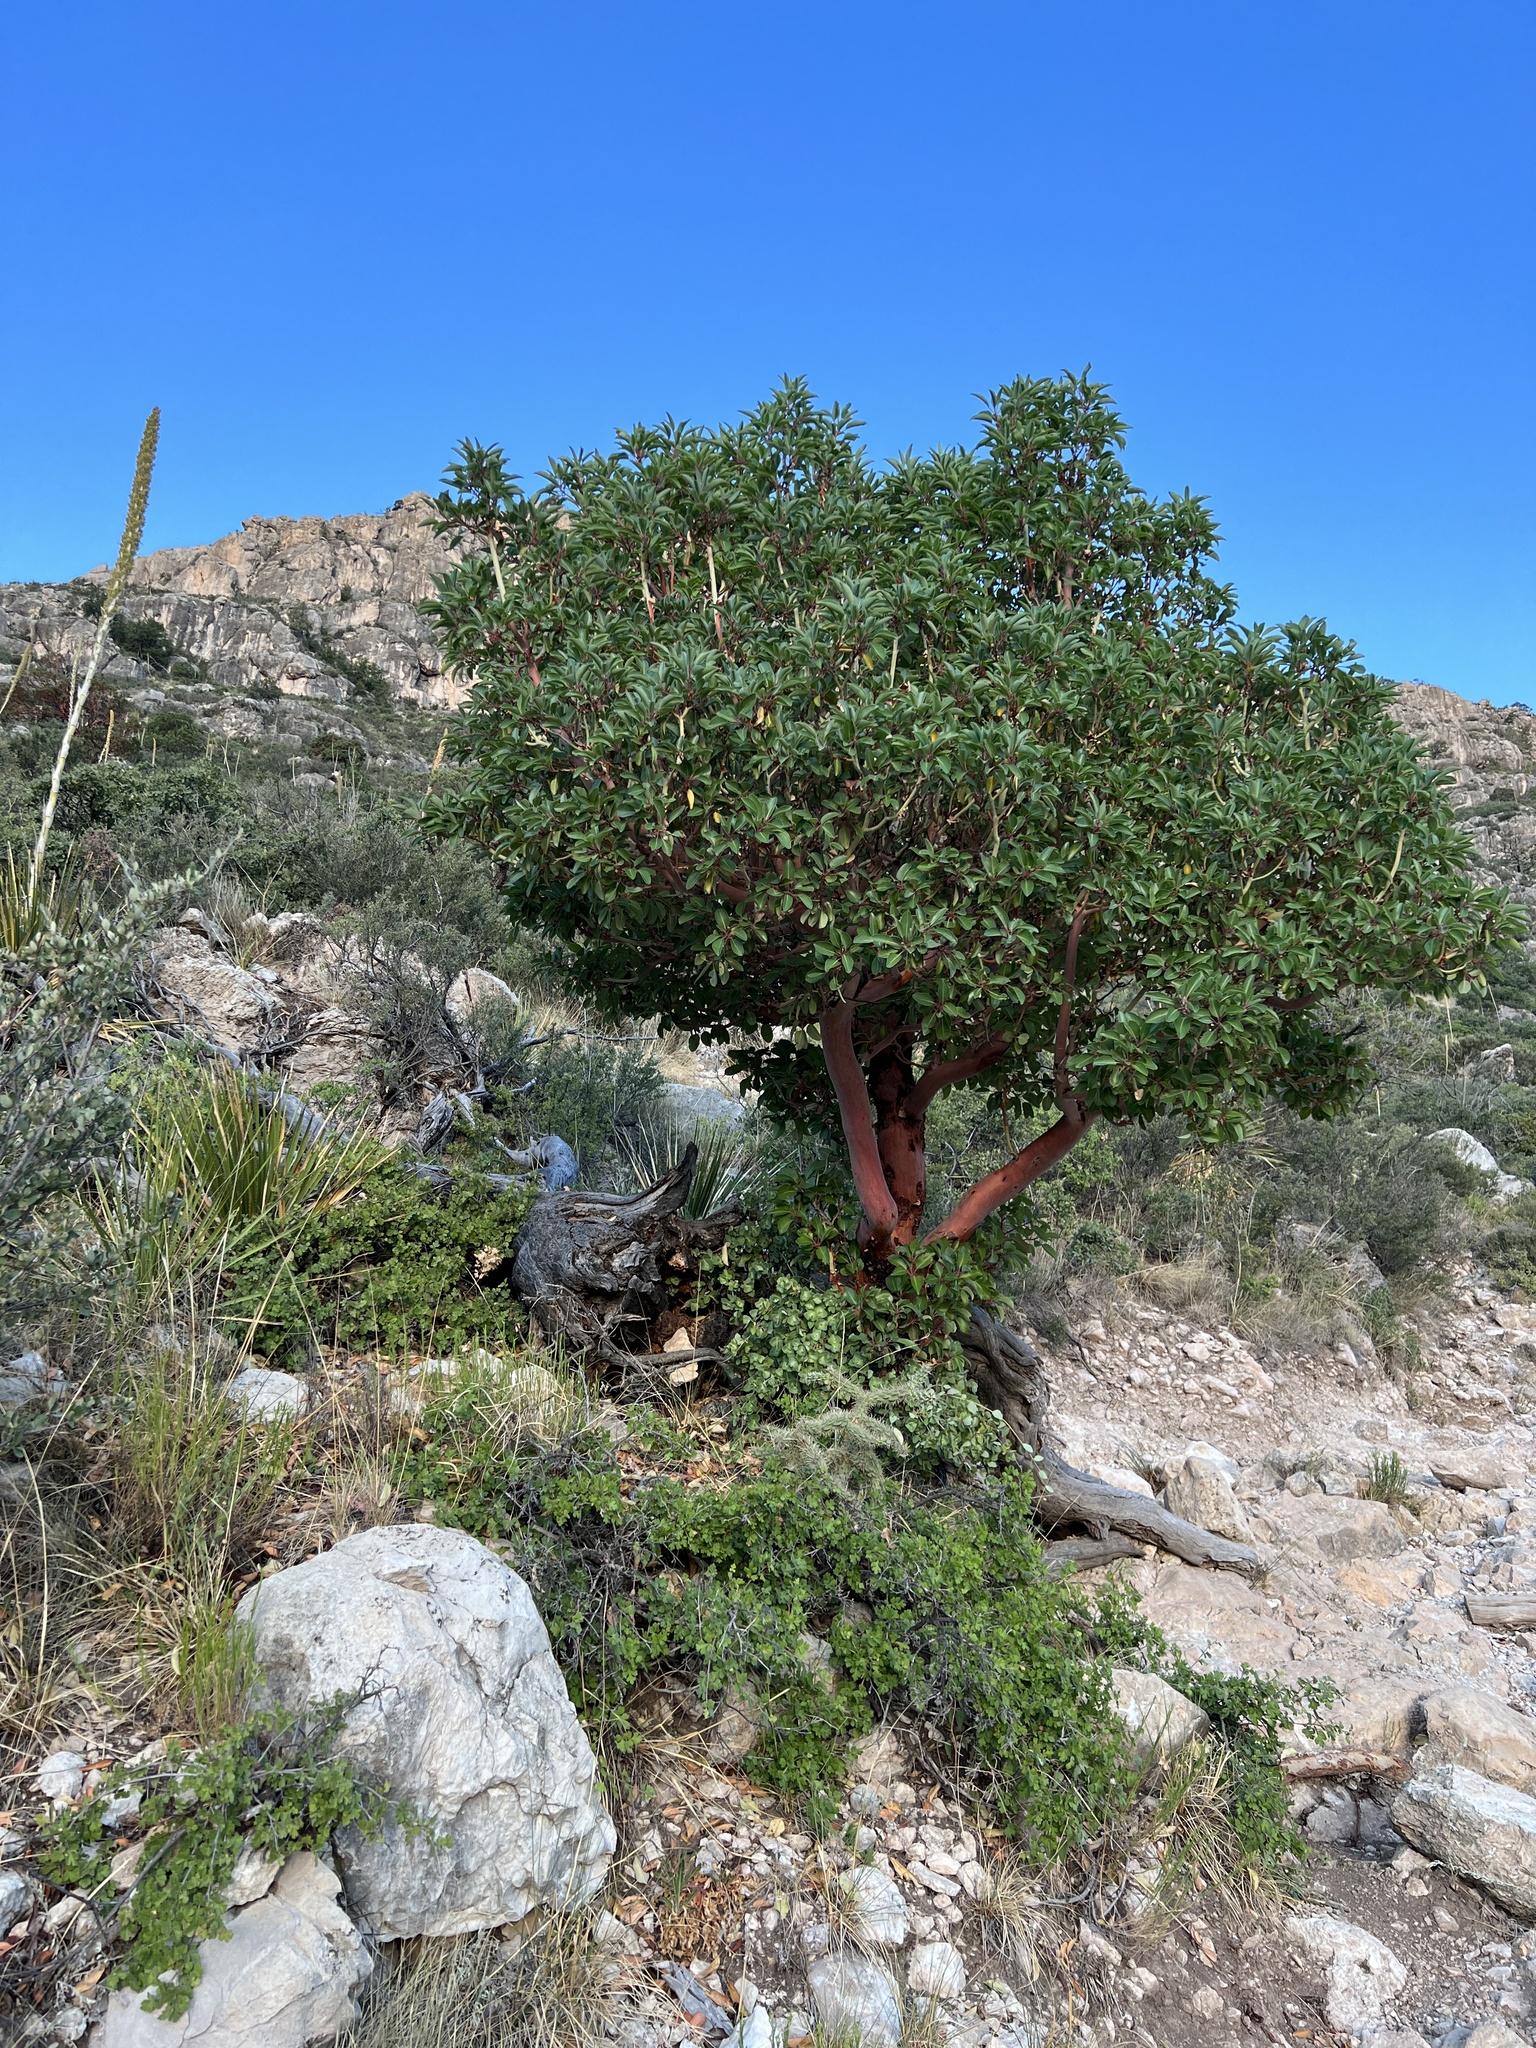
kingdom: Plantae
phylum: Tracheophyta
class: Magnoliopsida
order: Ericales
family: Ericaceae
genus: Arbutus
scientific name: Arbutus xalapensis
